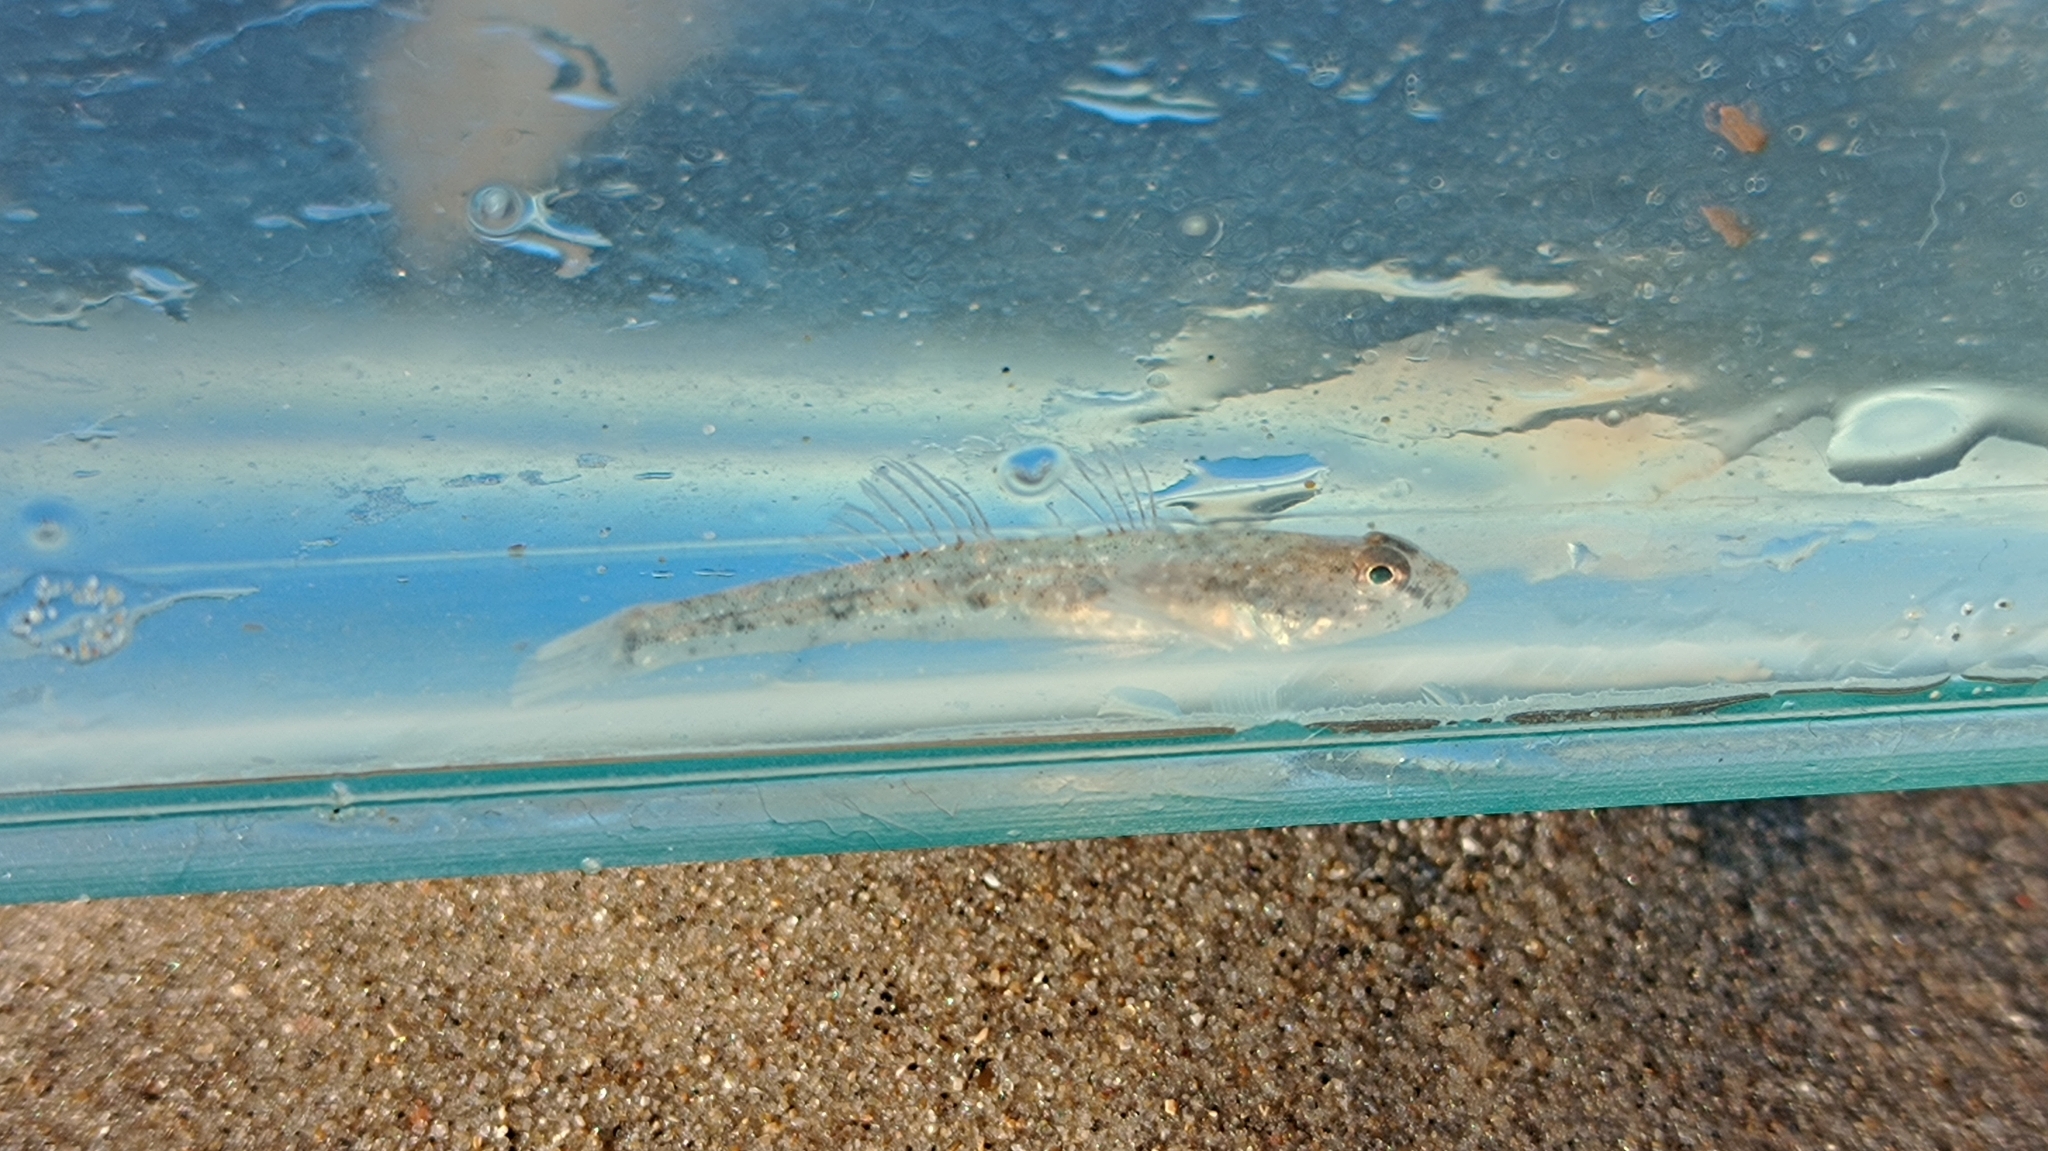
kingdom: Animalia
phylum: Chordata
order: Perciformes
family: Gobiidae
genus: Pomatoschistus
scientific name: Pomatoschistus microps
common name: Common goby
